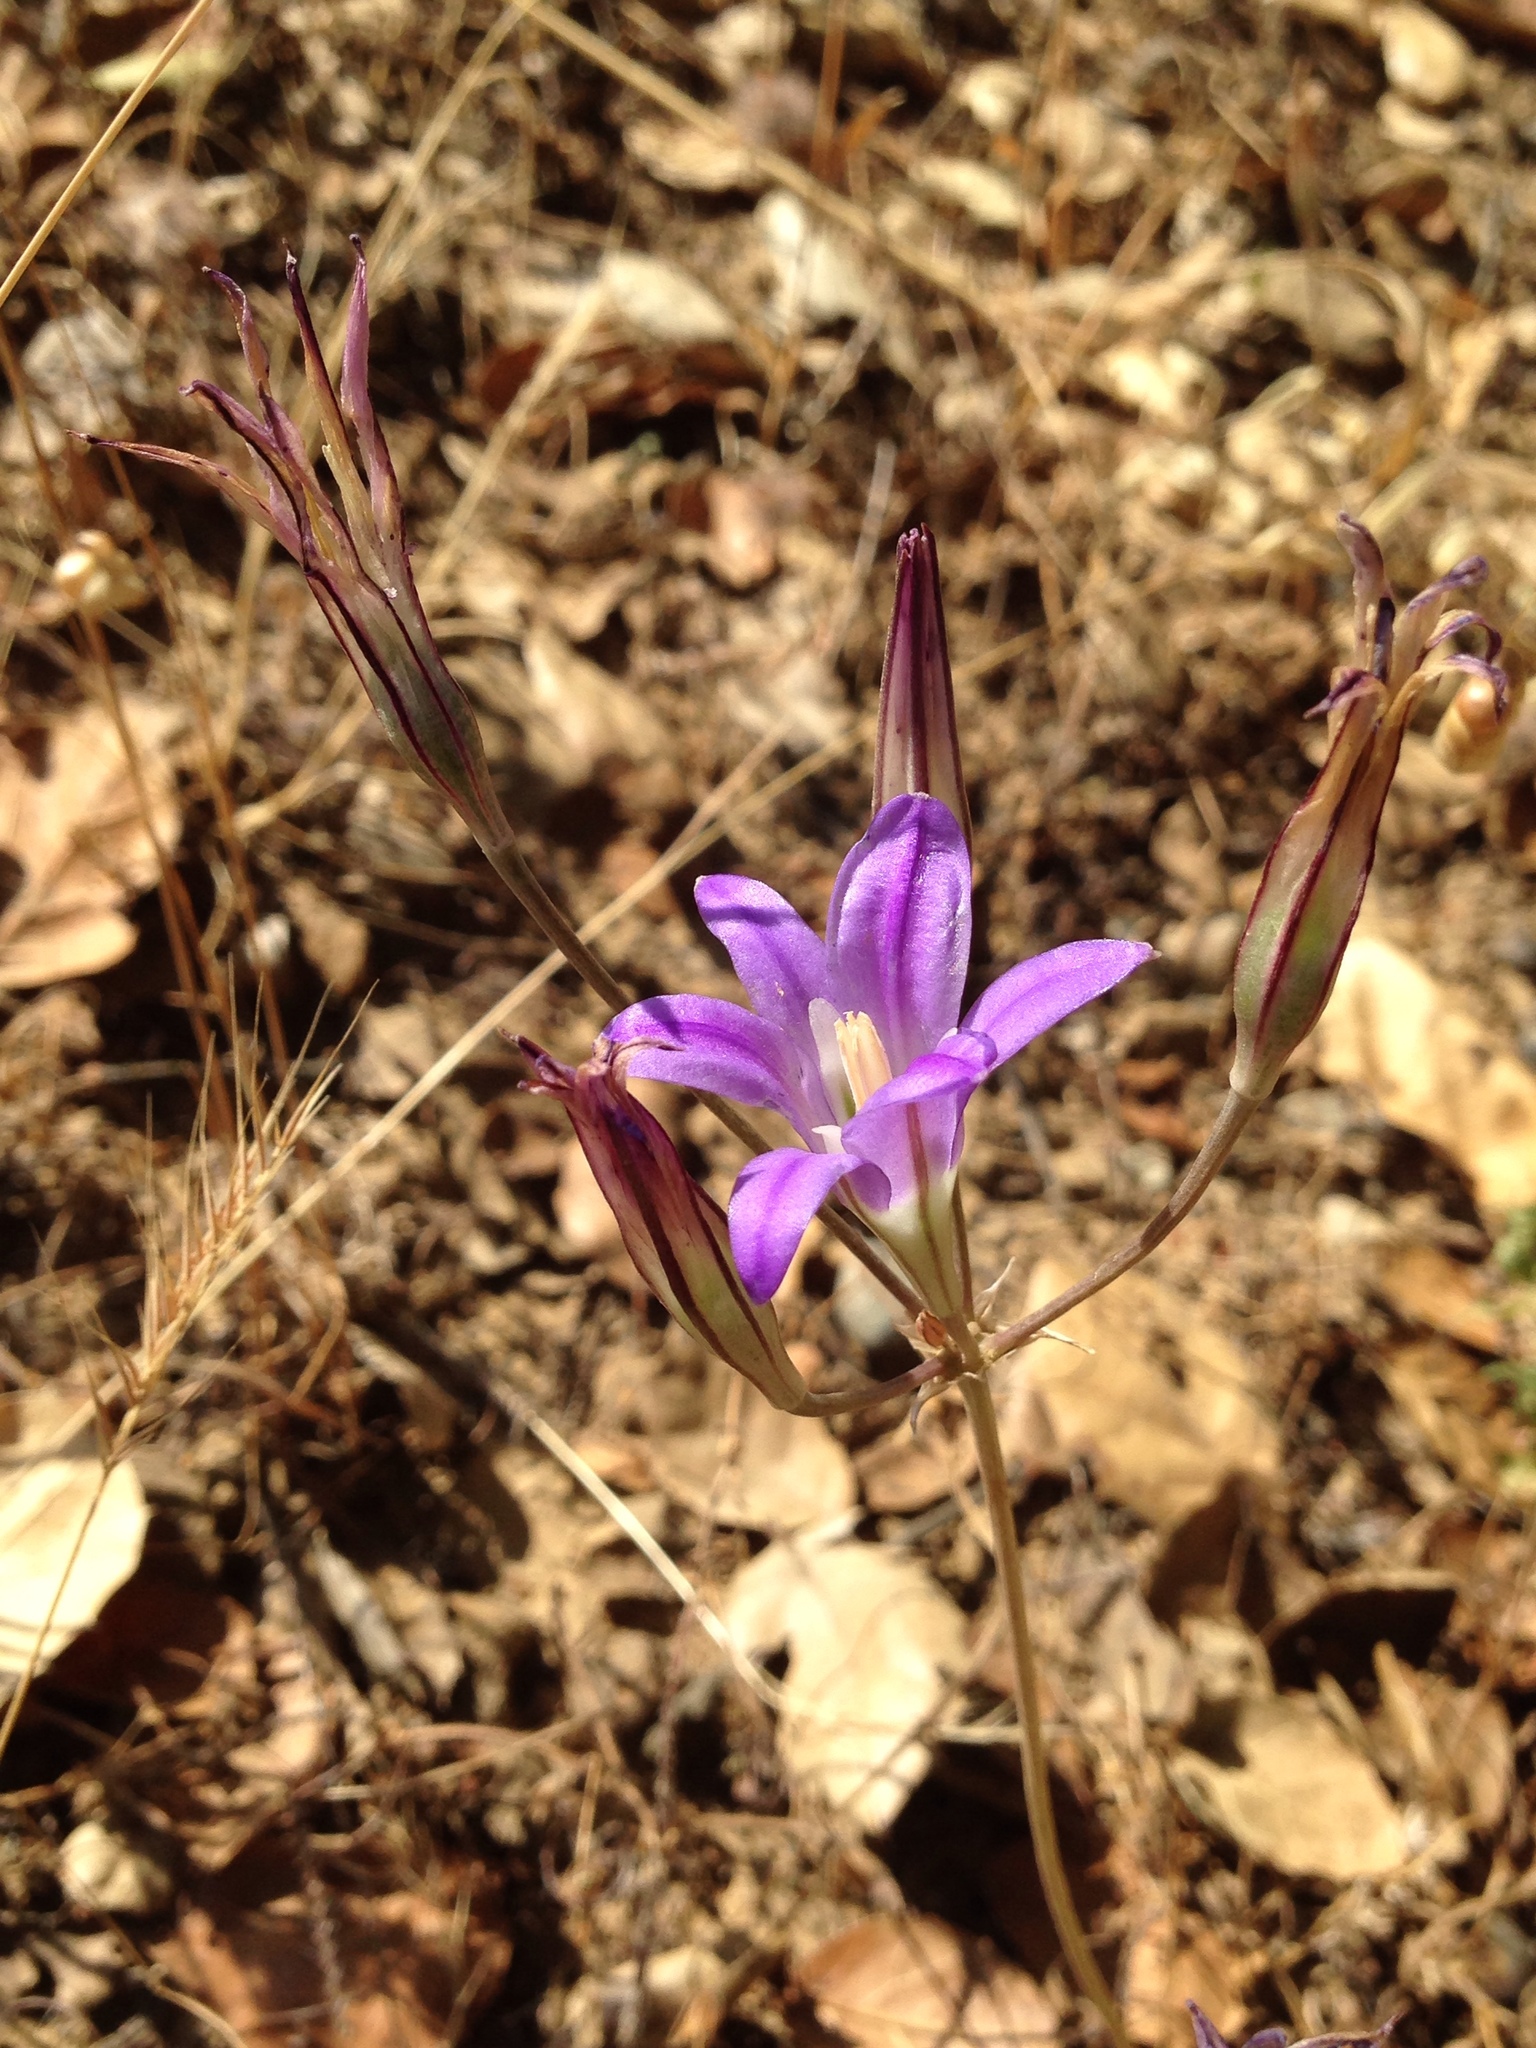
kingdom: Plantae
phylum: Tracheophyta
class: Liliopsida
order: Asparagales
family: Asparagaceae
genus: Brodiaea
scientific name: Brodiaea elegans
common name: Elegant cluster-lily
